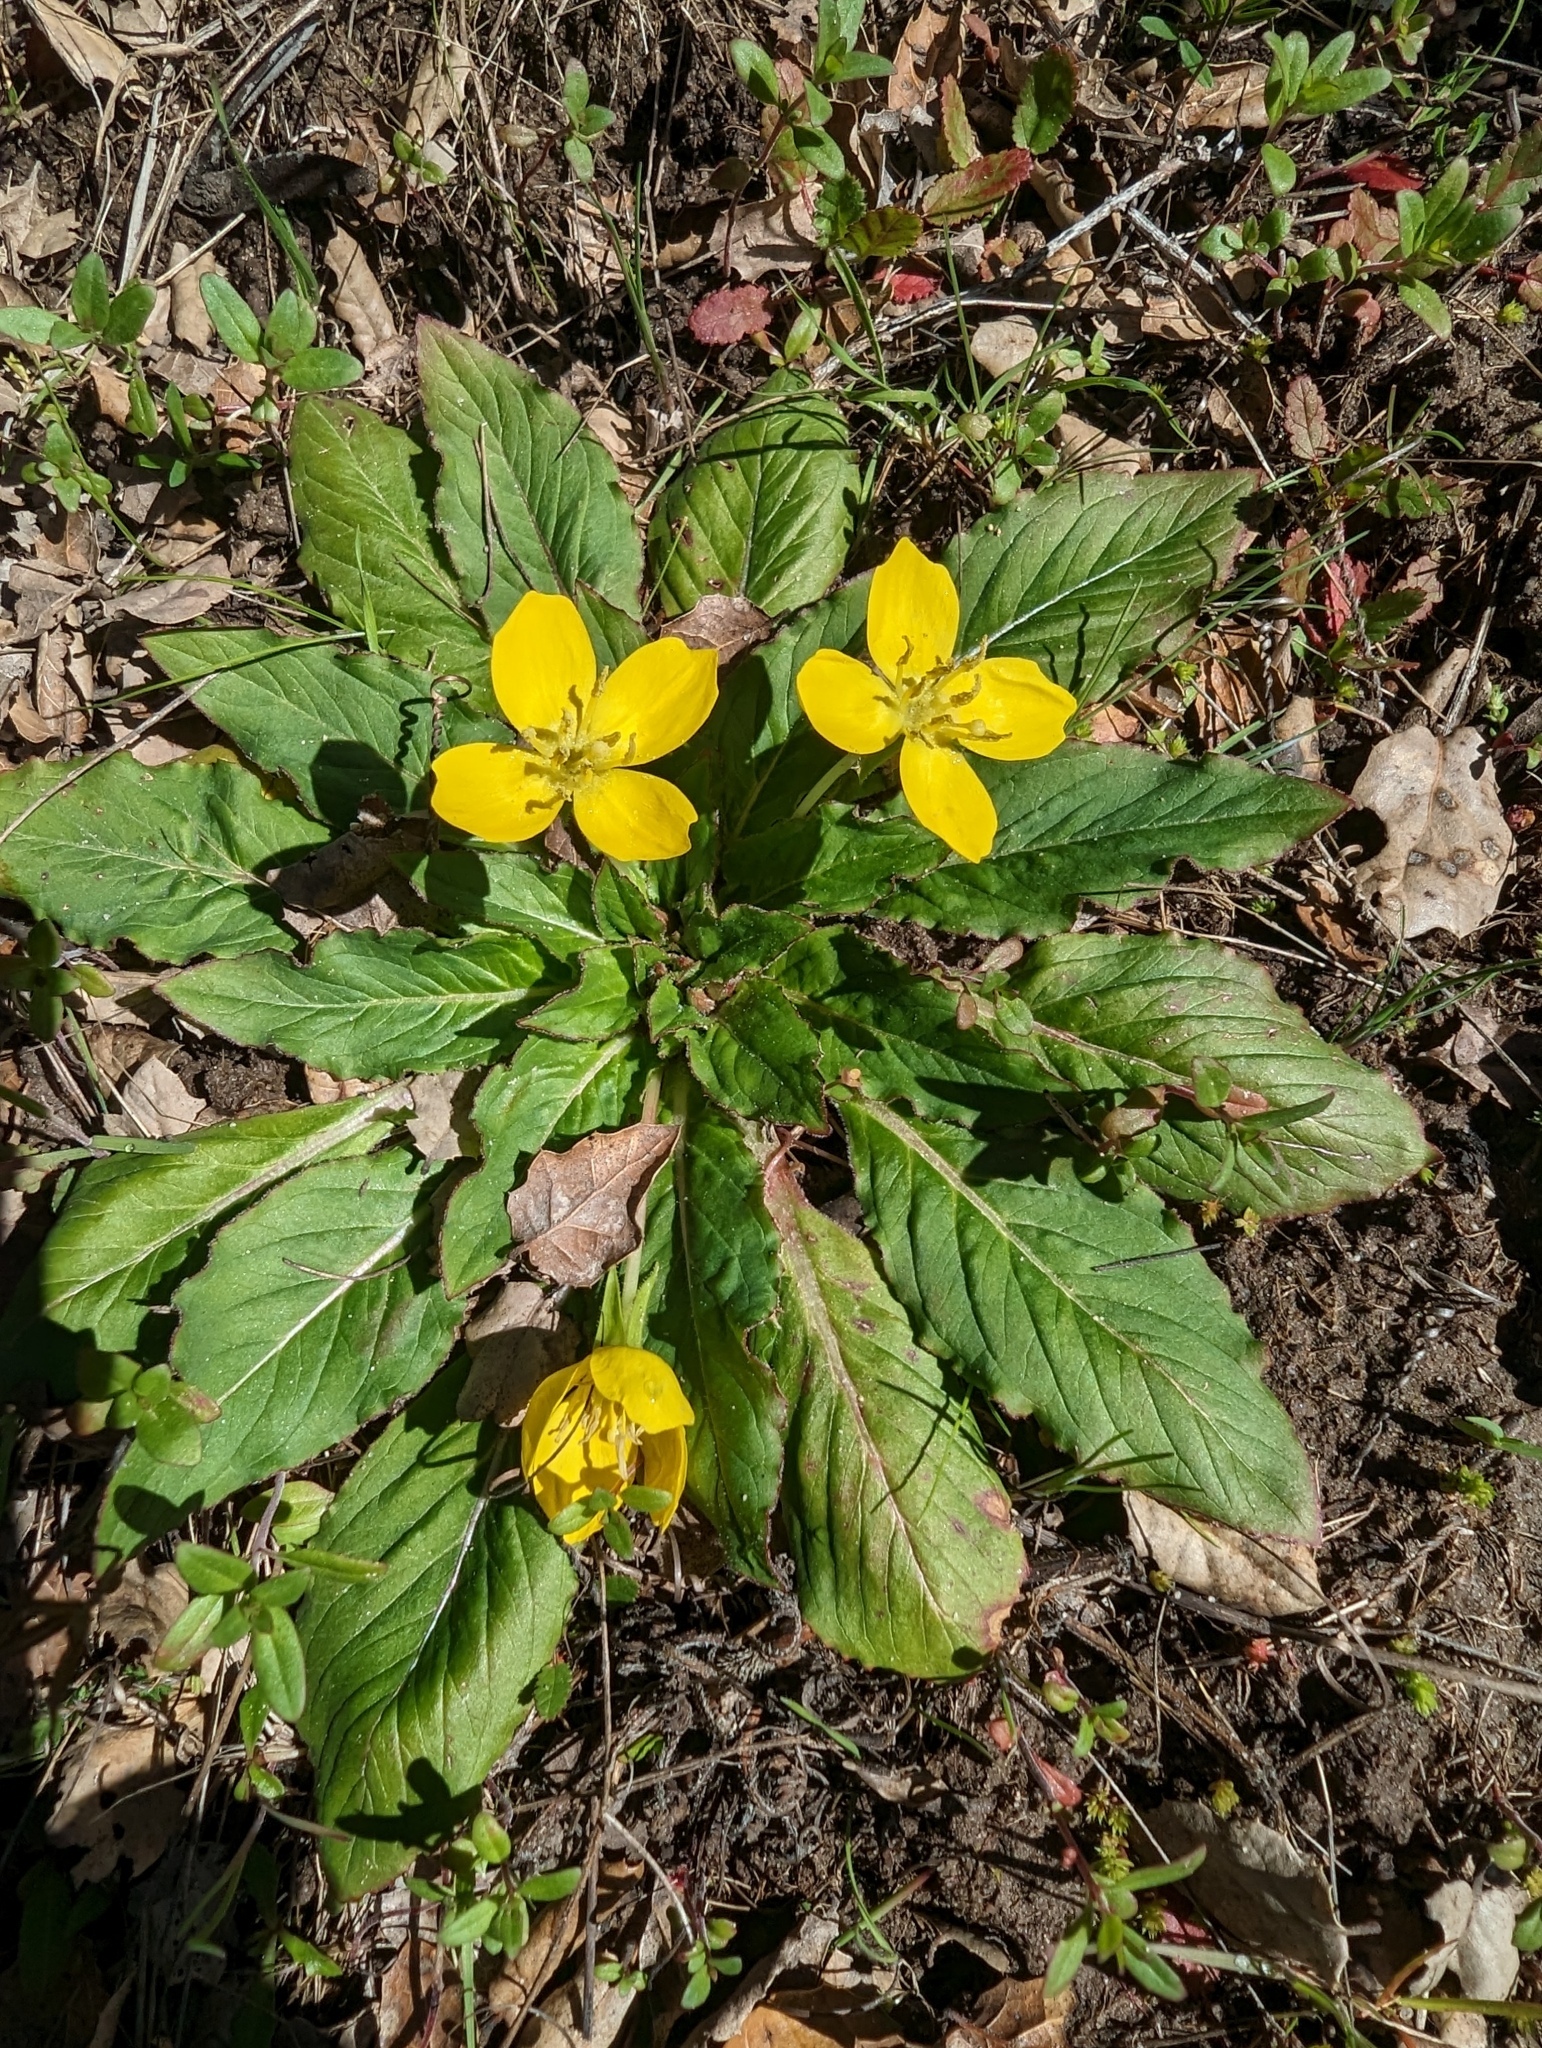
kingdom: Plantae
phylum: Tracheophyta
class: Magnoliopsida
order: Myrtales
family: Onagraceae
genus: Taraxia
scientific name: Taraxia ovata
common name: Goldeneggs
